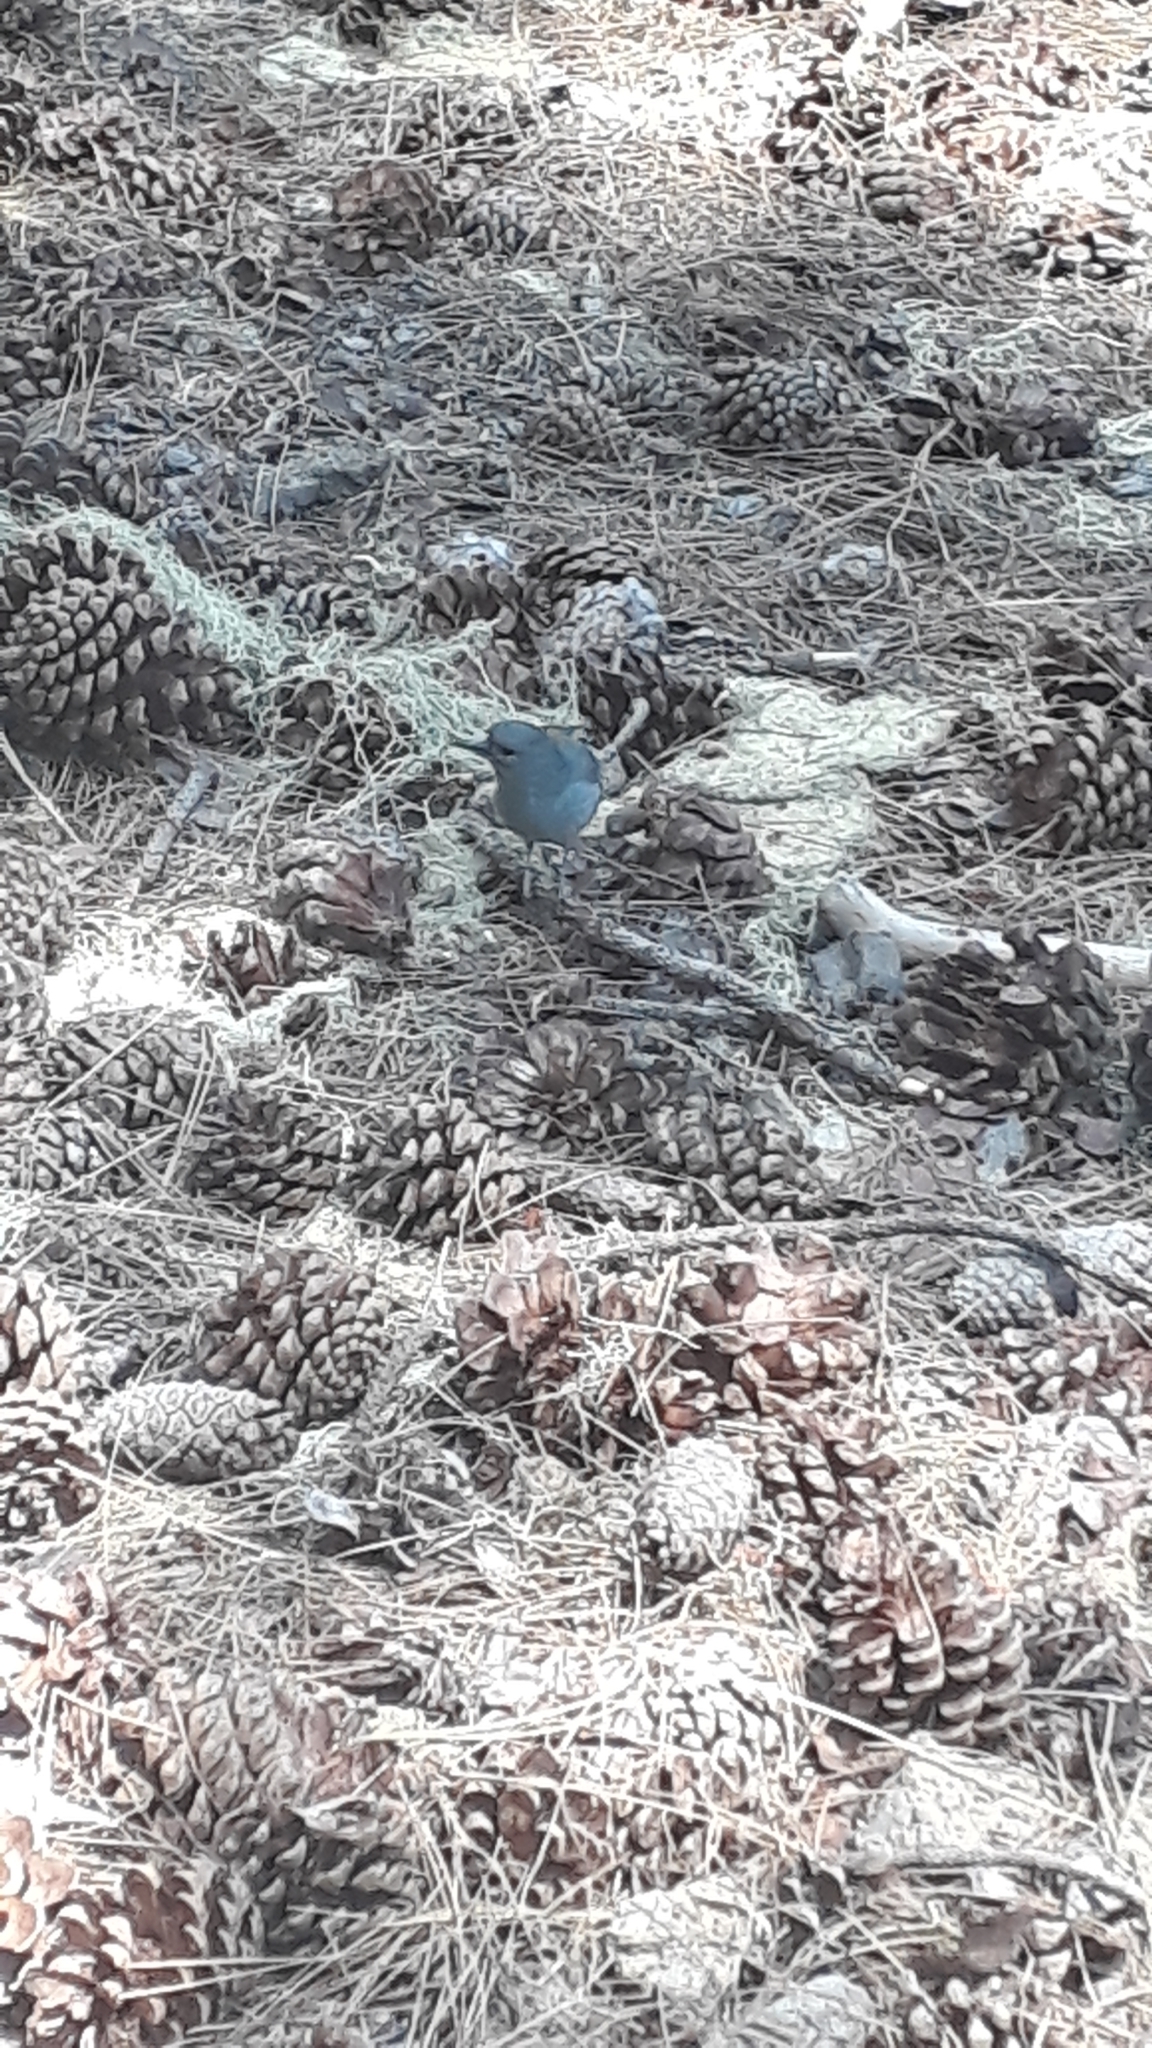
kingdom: Animalia
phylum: Chordata
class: Aves
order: Passeriformes
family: Fringillidae
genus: Fringilla
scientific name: Fringilla teydea
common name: Blue chaffinch
